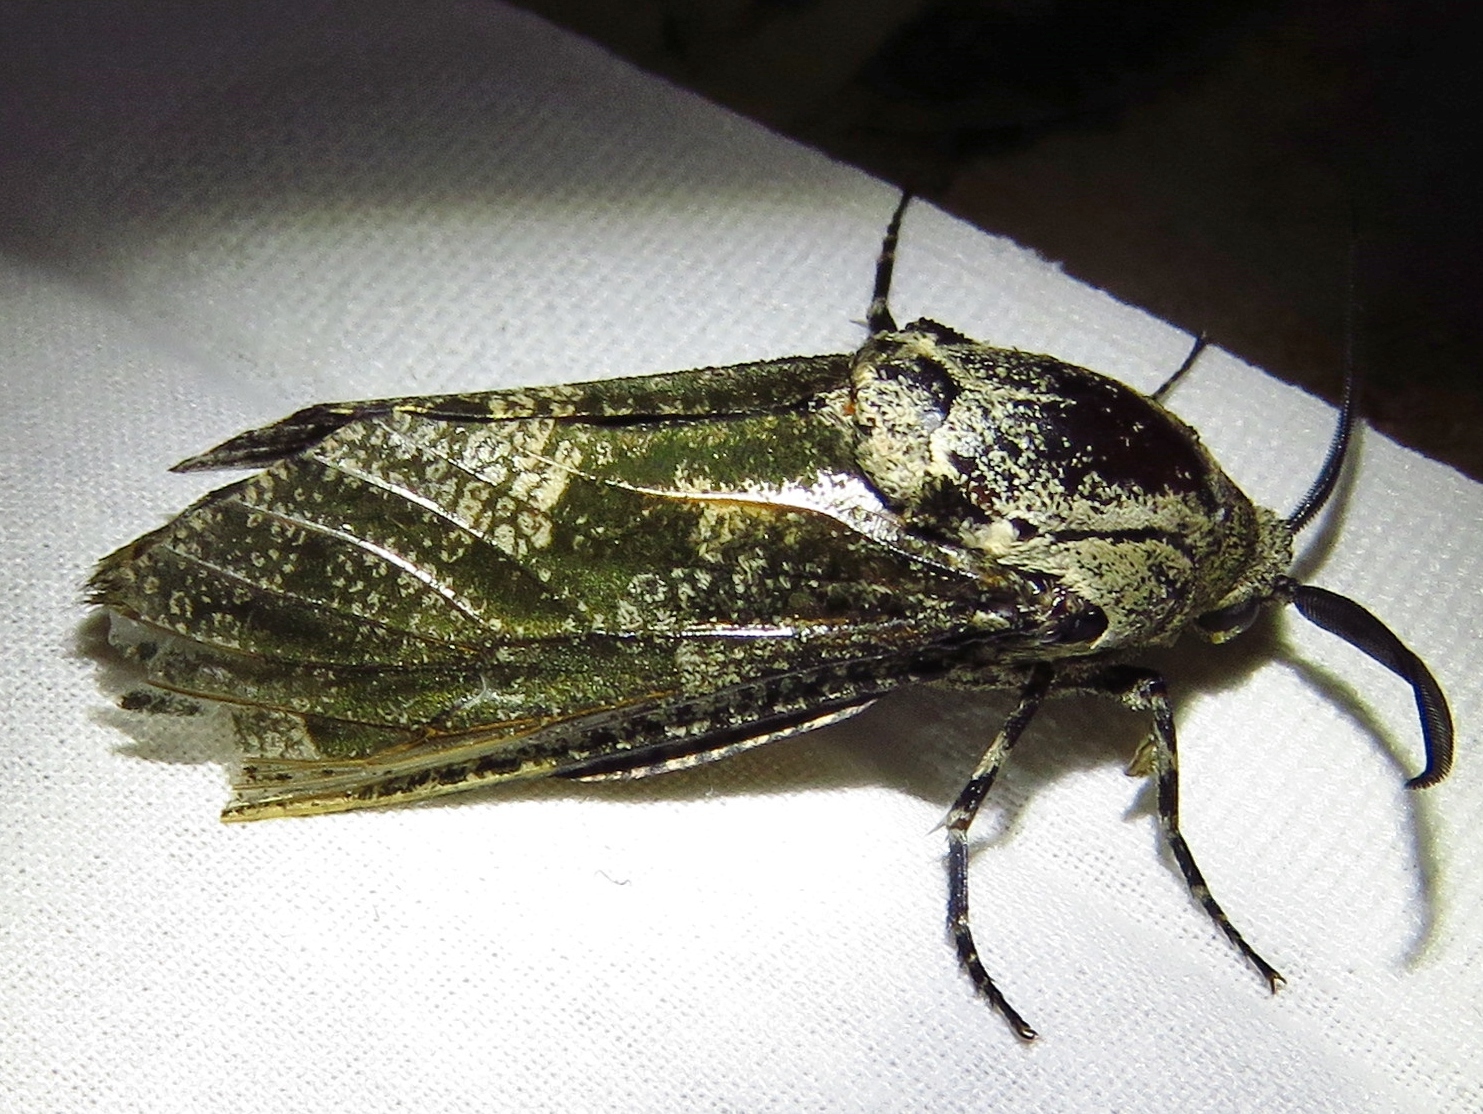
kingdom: Animalia
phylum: Arthropoda
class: Insecta
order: Lepidoptera
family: Cossidae
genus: Prionoxystus
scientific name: Prionoxystus robiniae
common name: Carpenterworm
